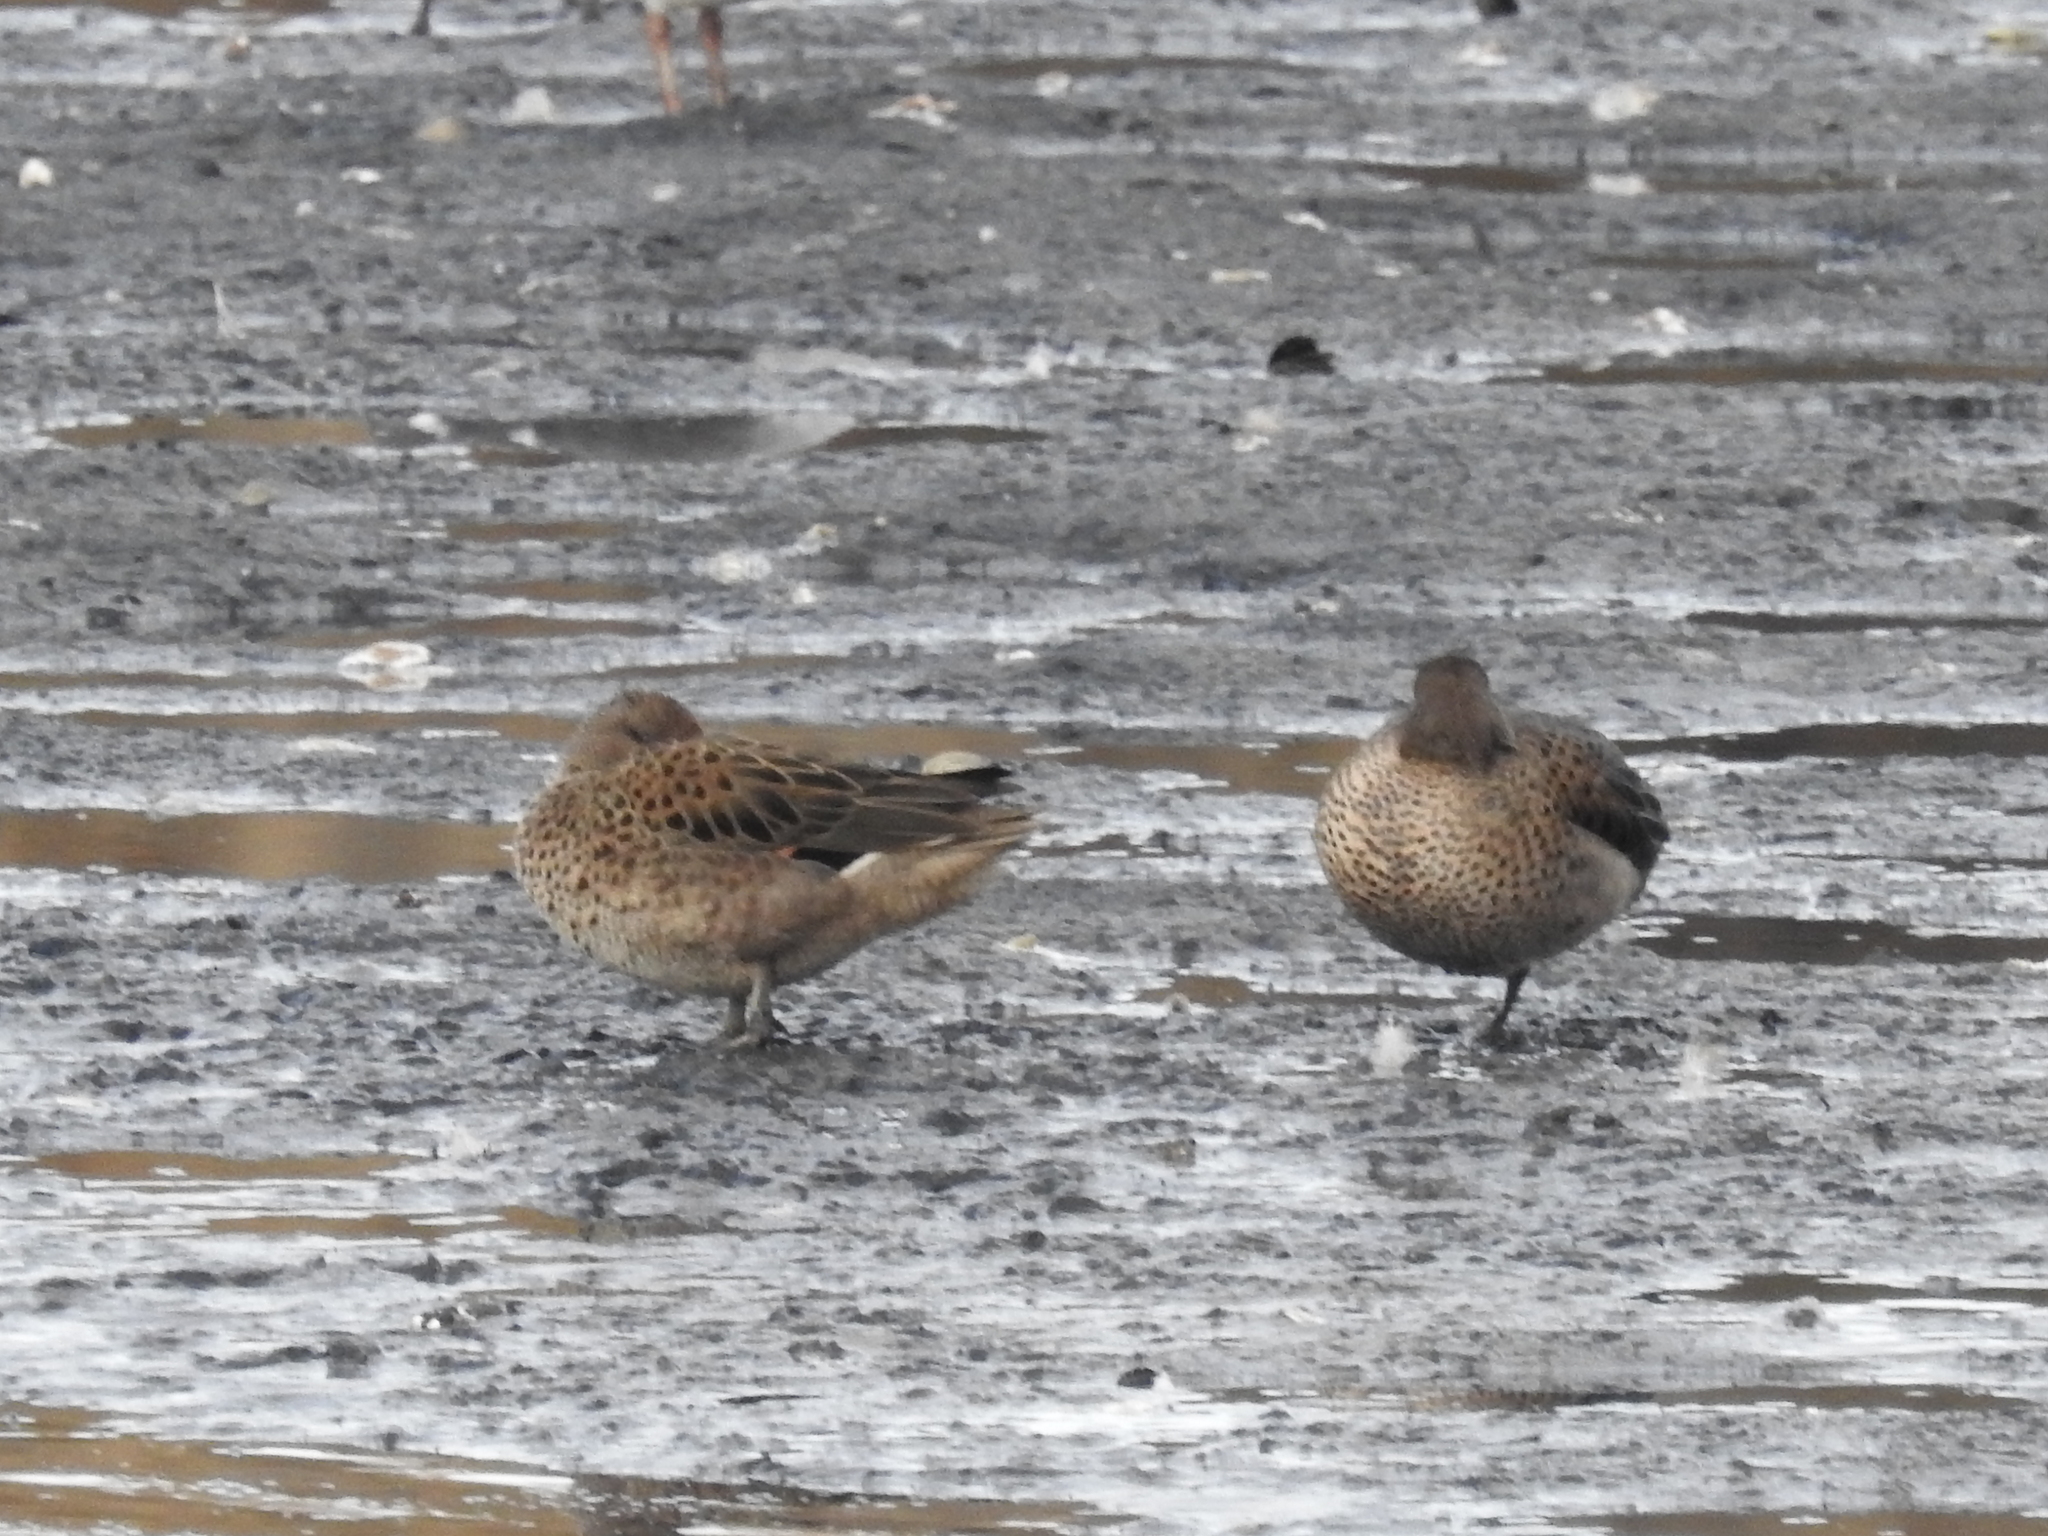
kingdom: Animalia
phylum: Chordata
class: Aves
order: Anseriformes
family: Anatidae
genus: Anas
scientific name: Anas flavirostris
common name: Yellow-billed teal
